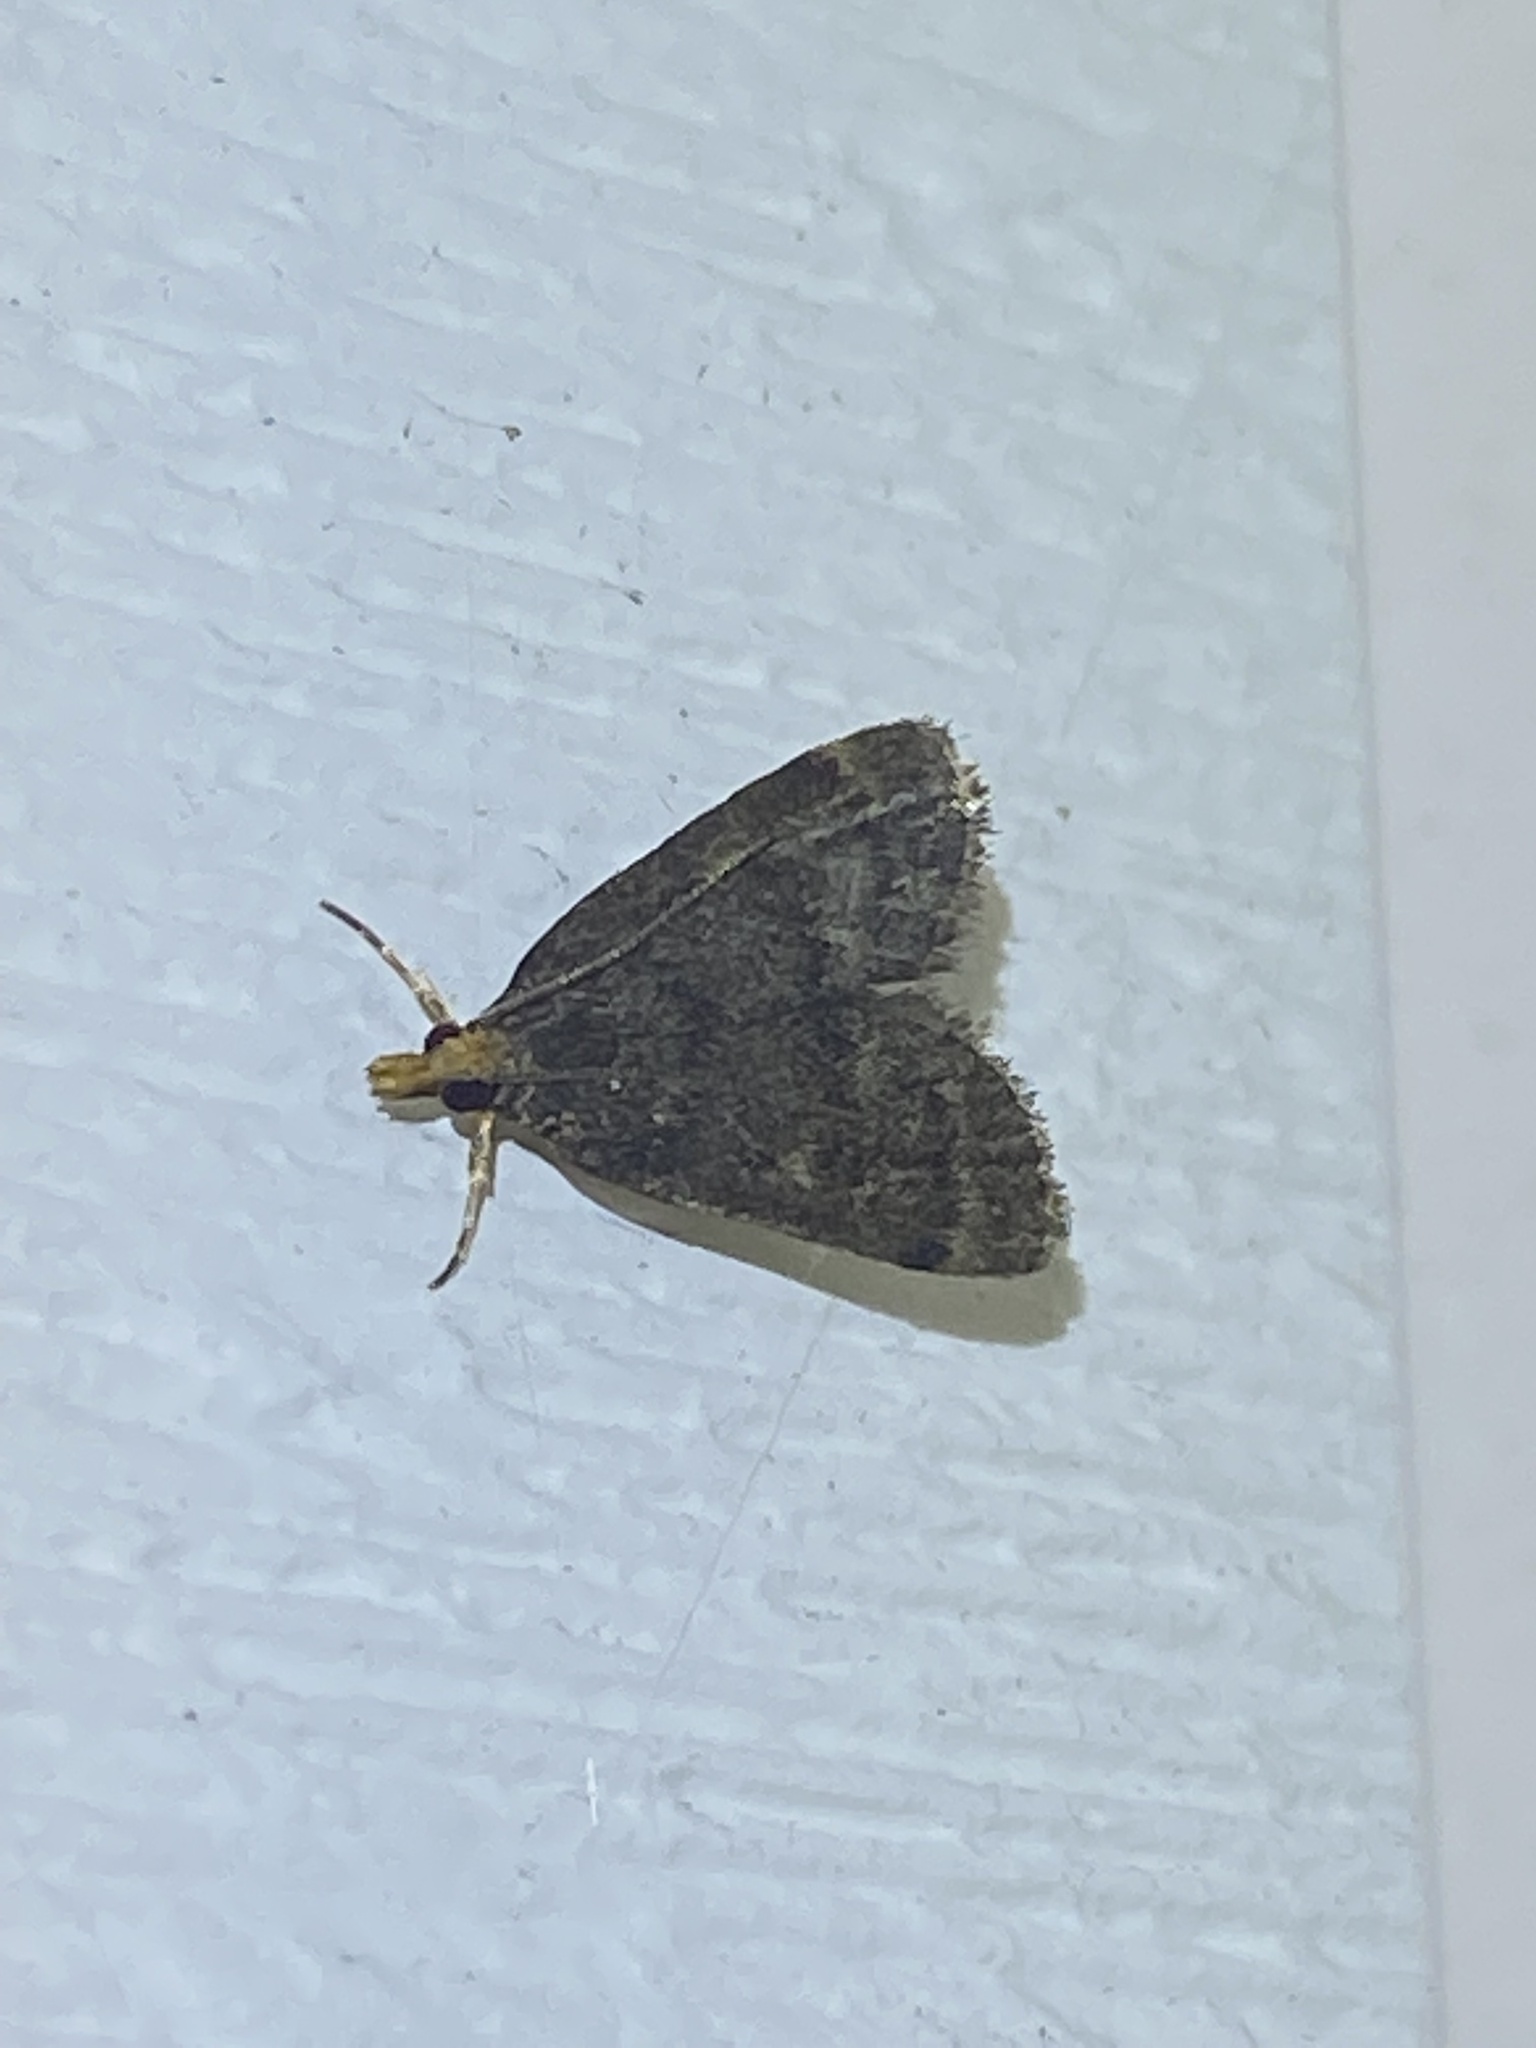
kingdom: Animalia
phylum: Arthropoda
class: Insecta
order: Lepidoptera
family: Crambidae
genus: Pyrausta
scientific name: Pyrausta merrickalis
